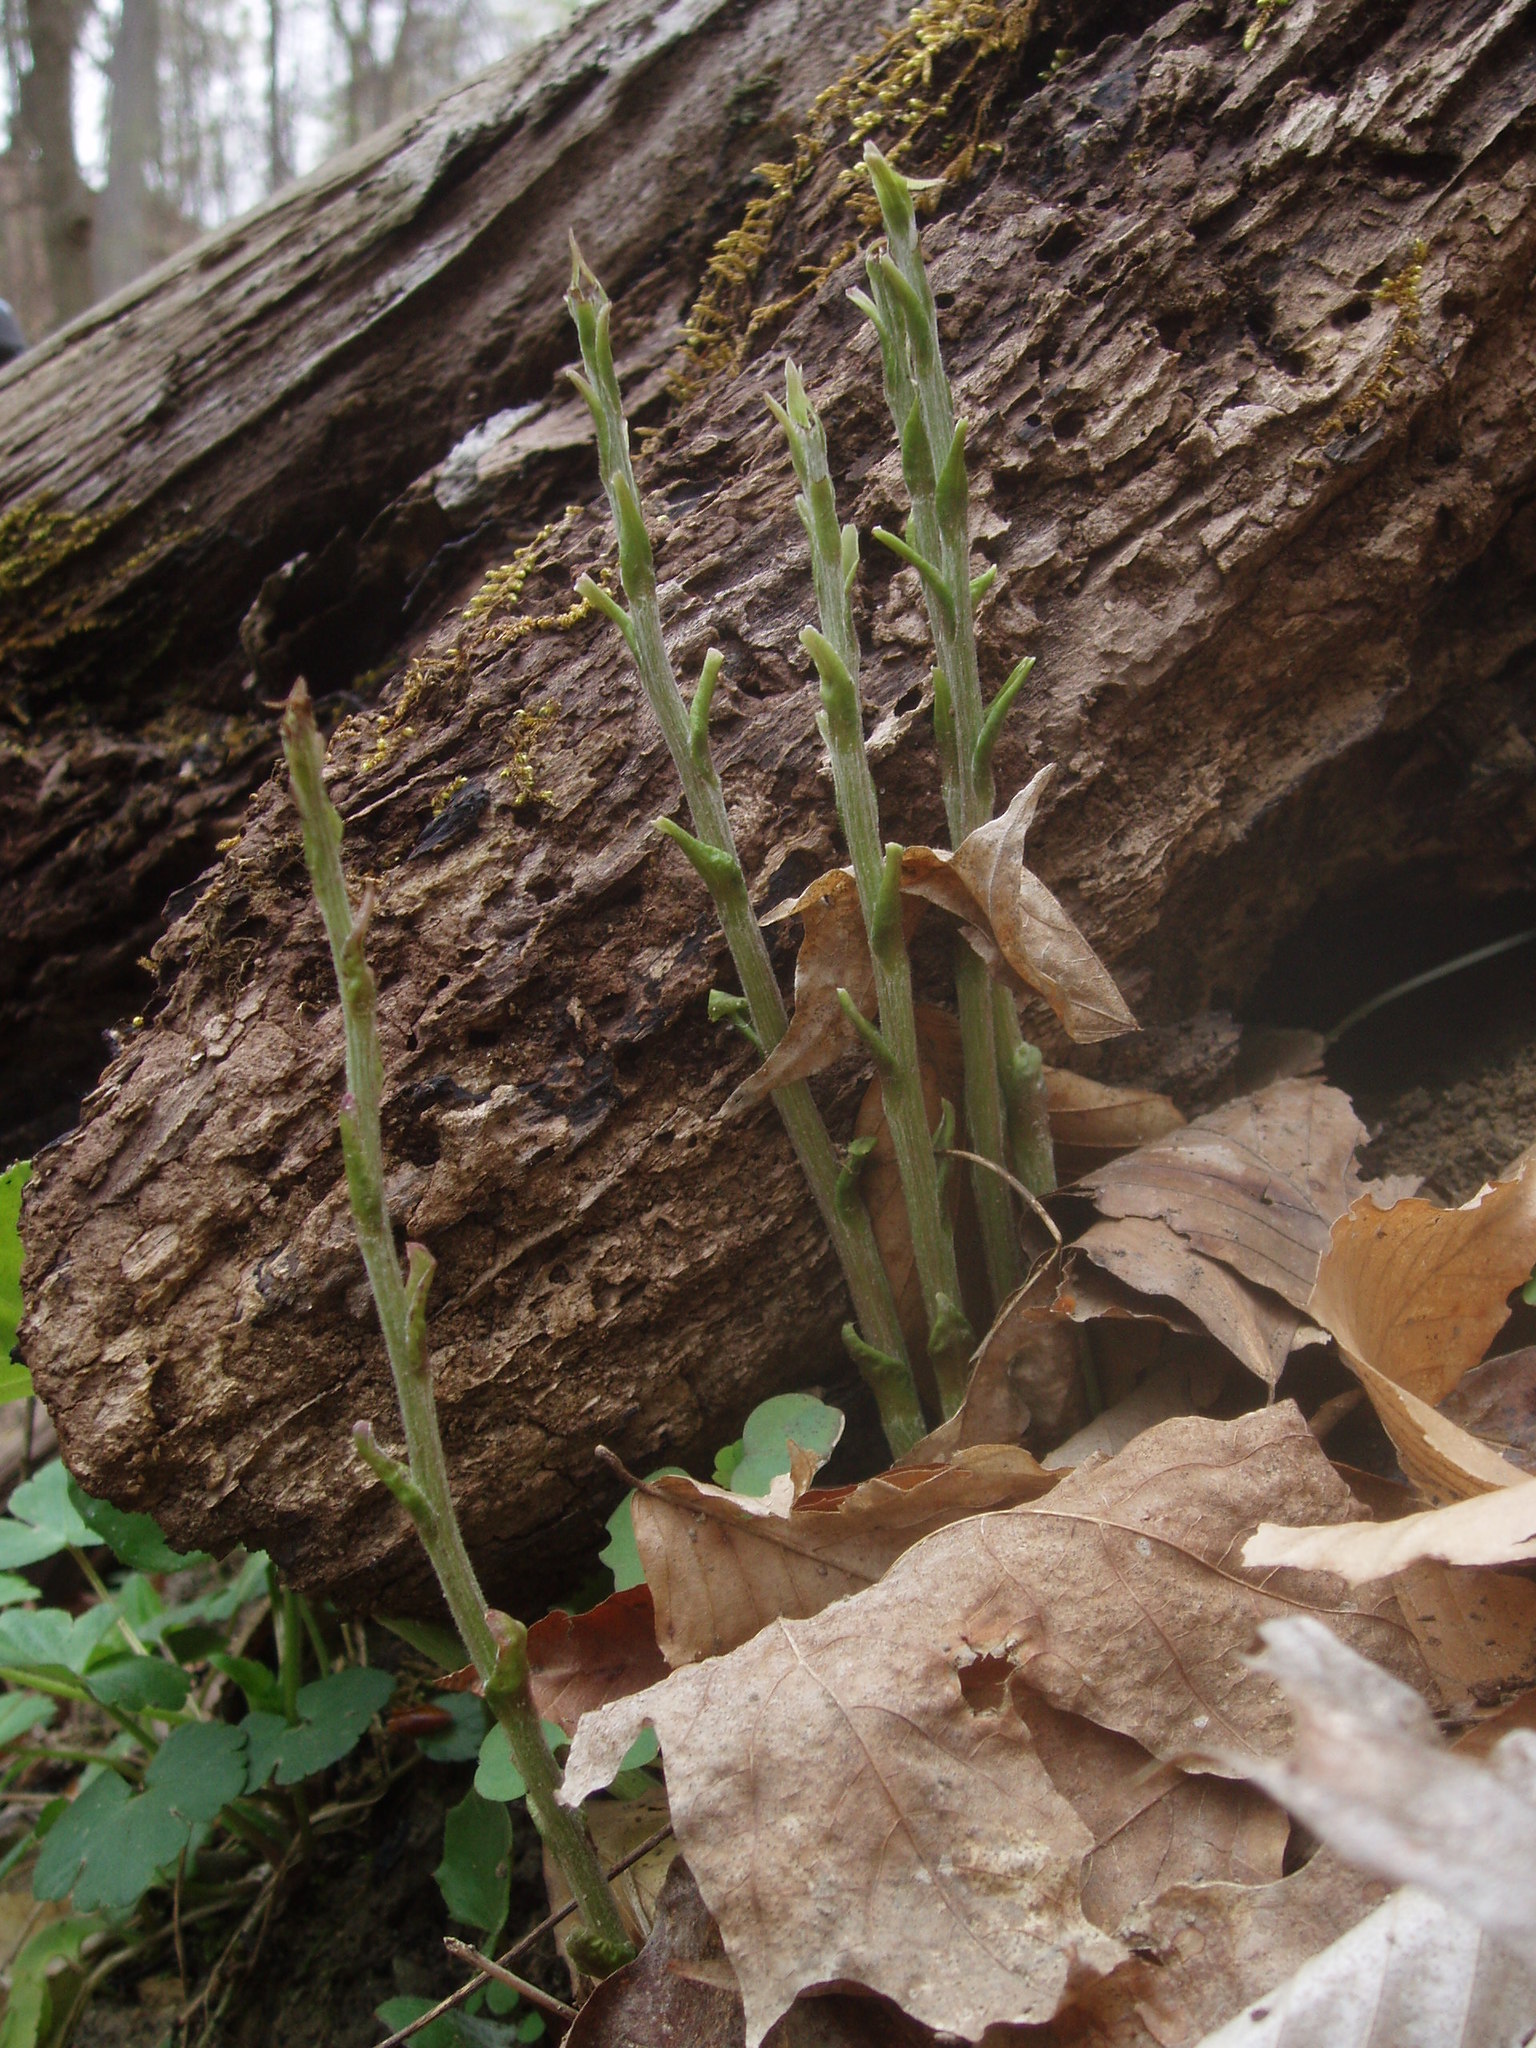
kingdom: Plantae
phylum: Tracheophyta
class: Magnoliopsida
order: Asterales
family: Asteraceae
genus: Tussilago
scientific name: Tussilago farfara
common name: Coltsfoot
